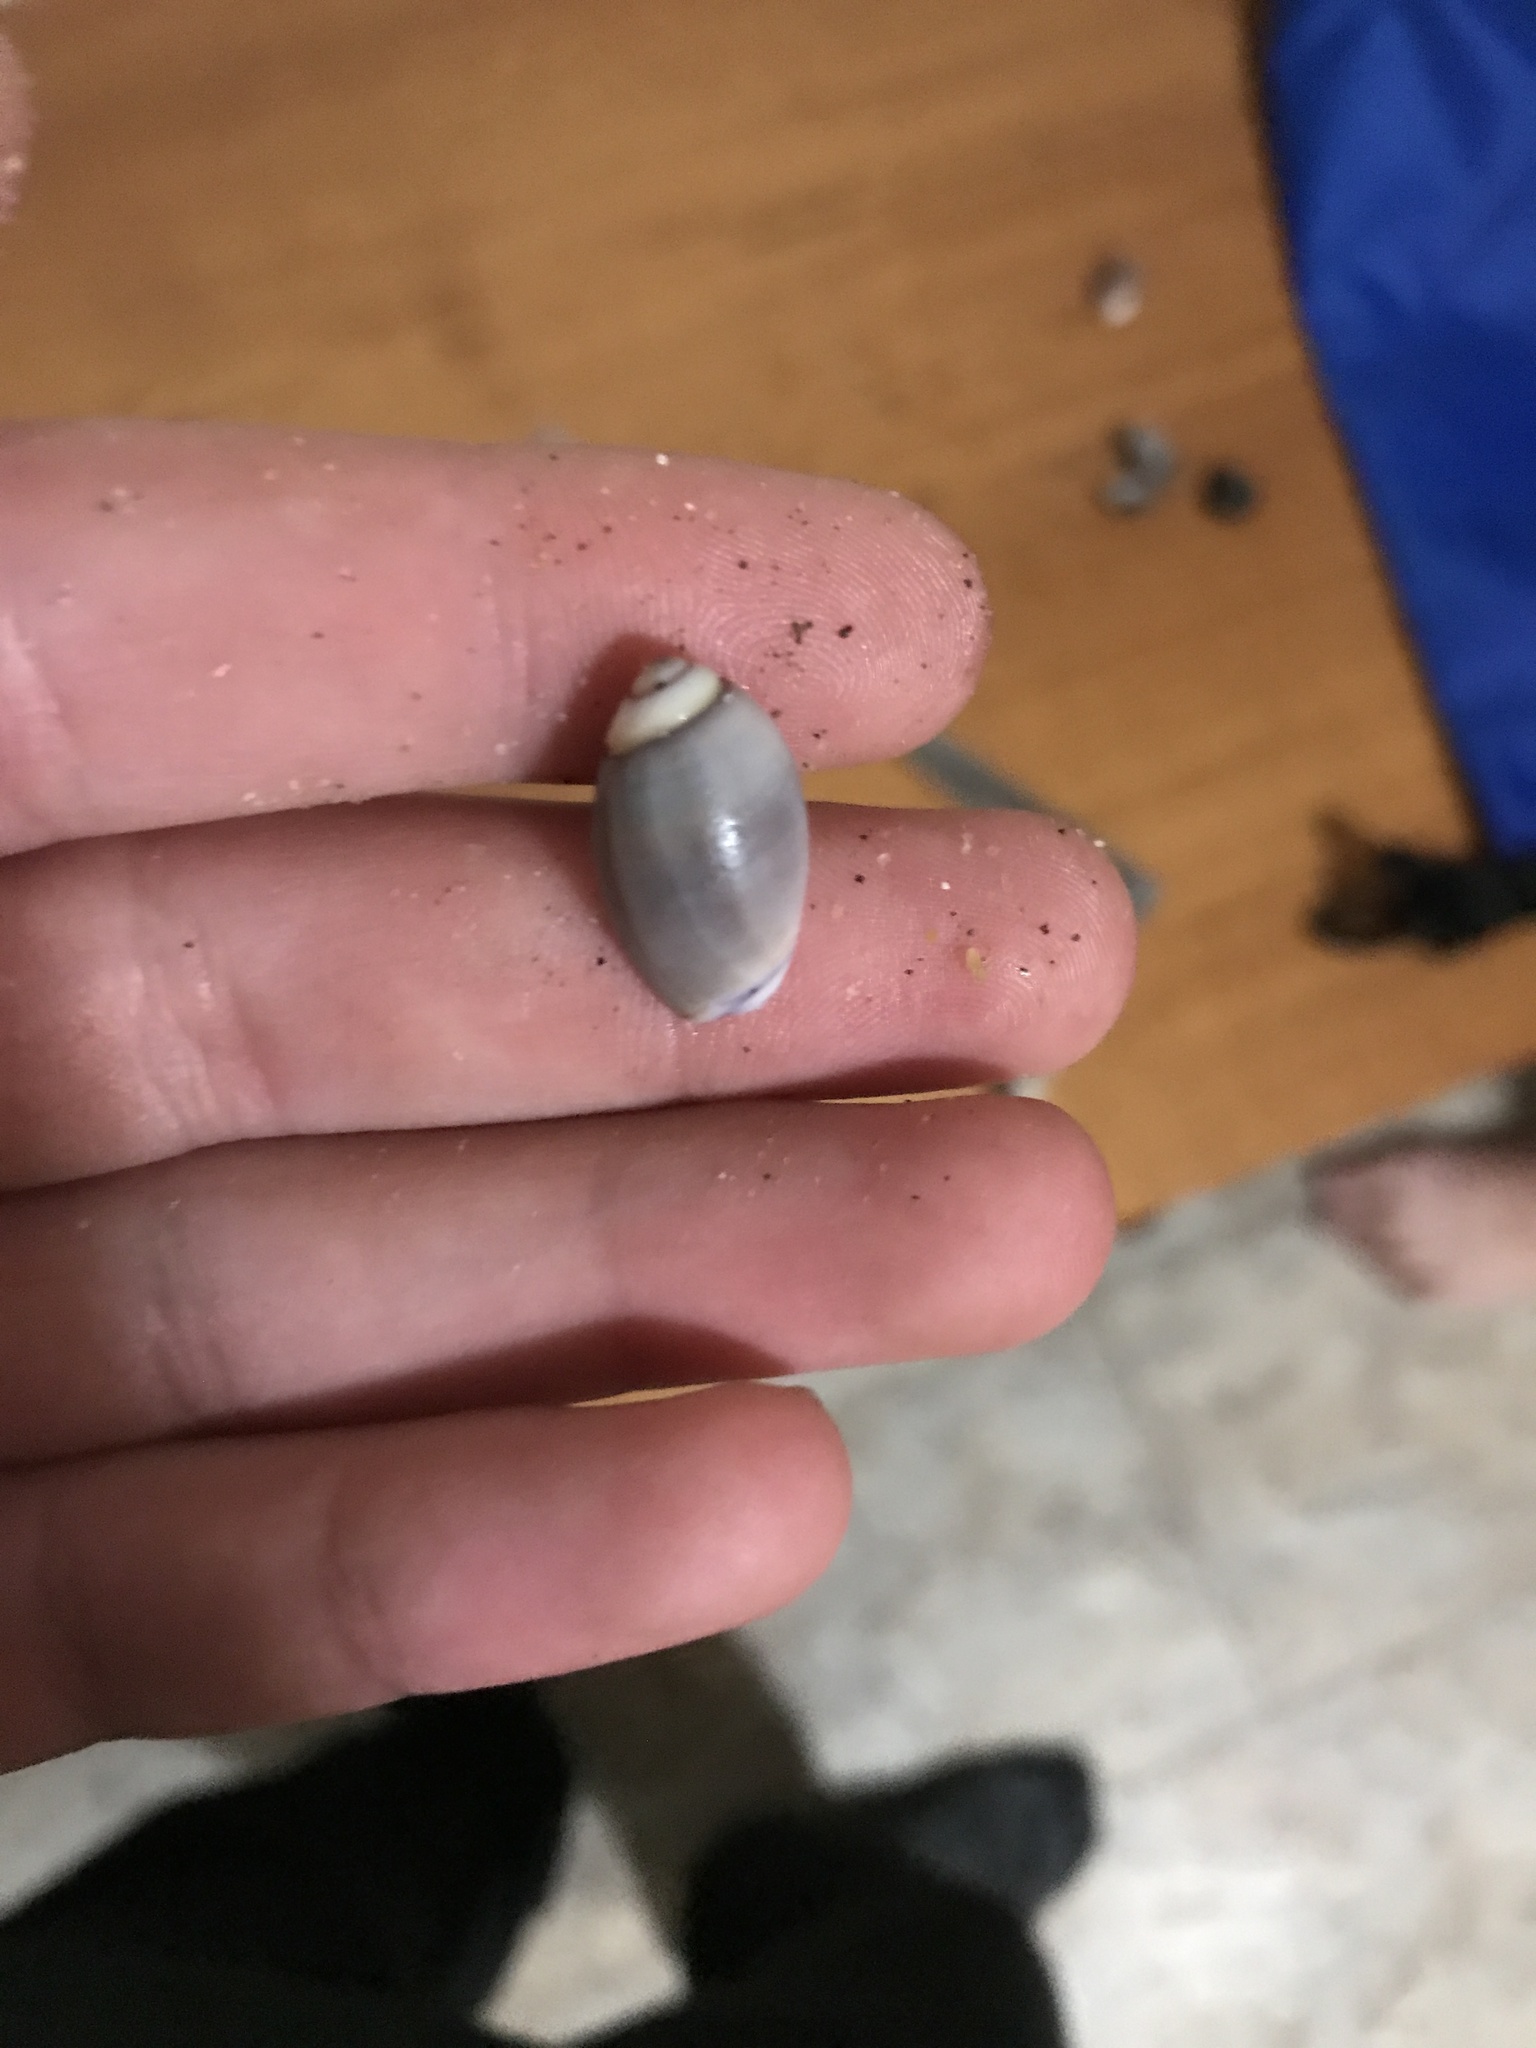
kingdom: Animalia
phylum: Mollusca
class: Gastropoda
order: Neogastropoda
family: Olividae
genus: Callianax
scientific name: Callianax biplicata
